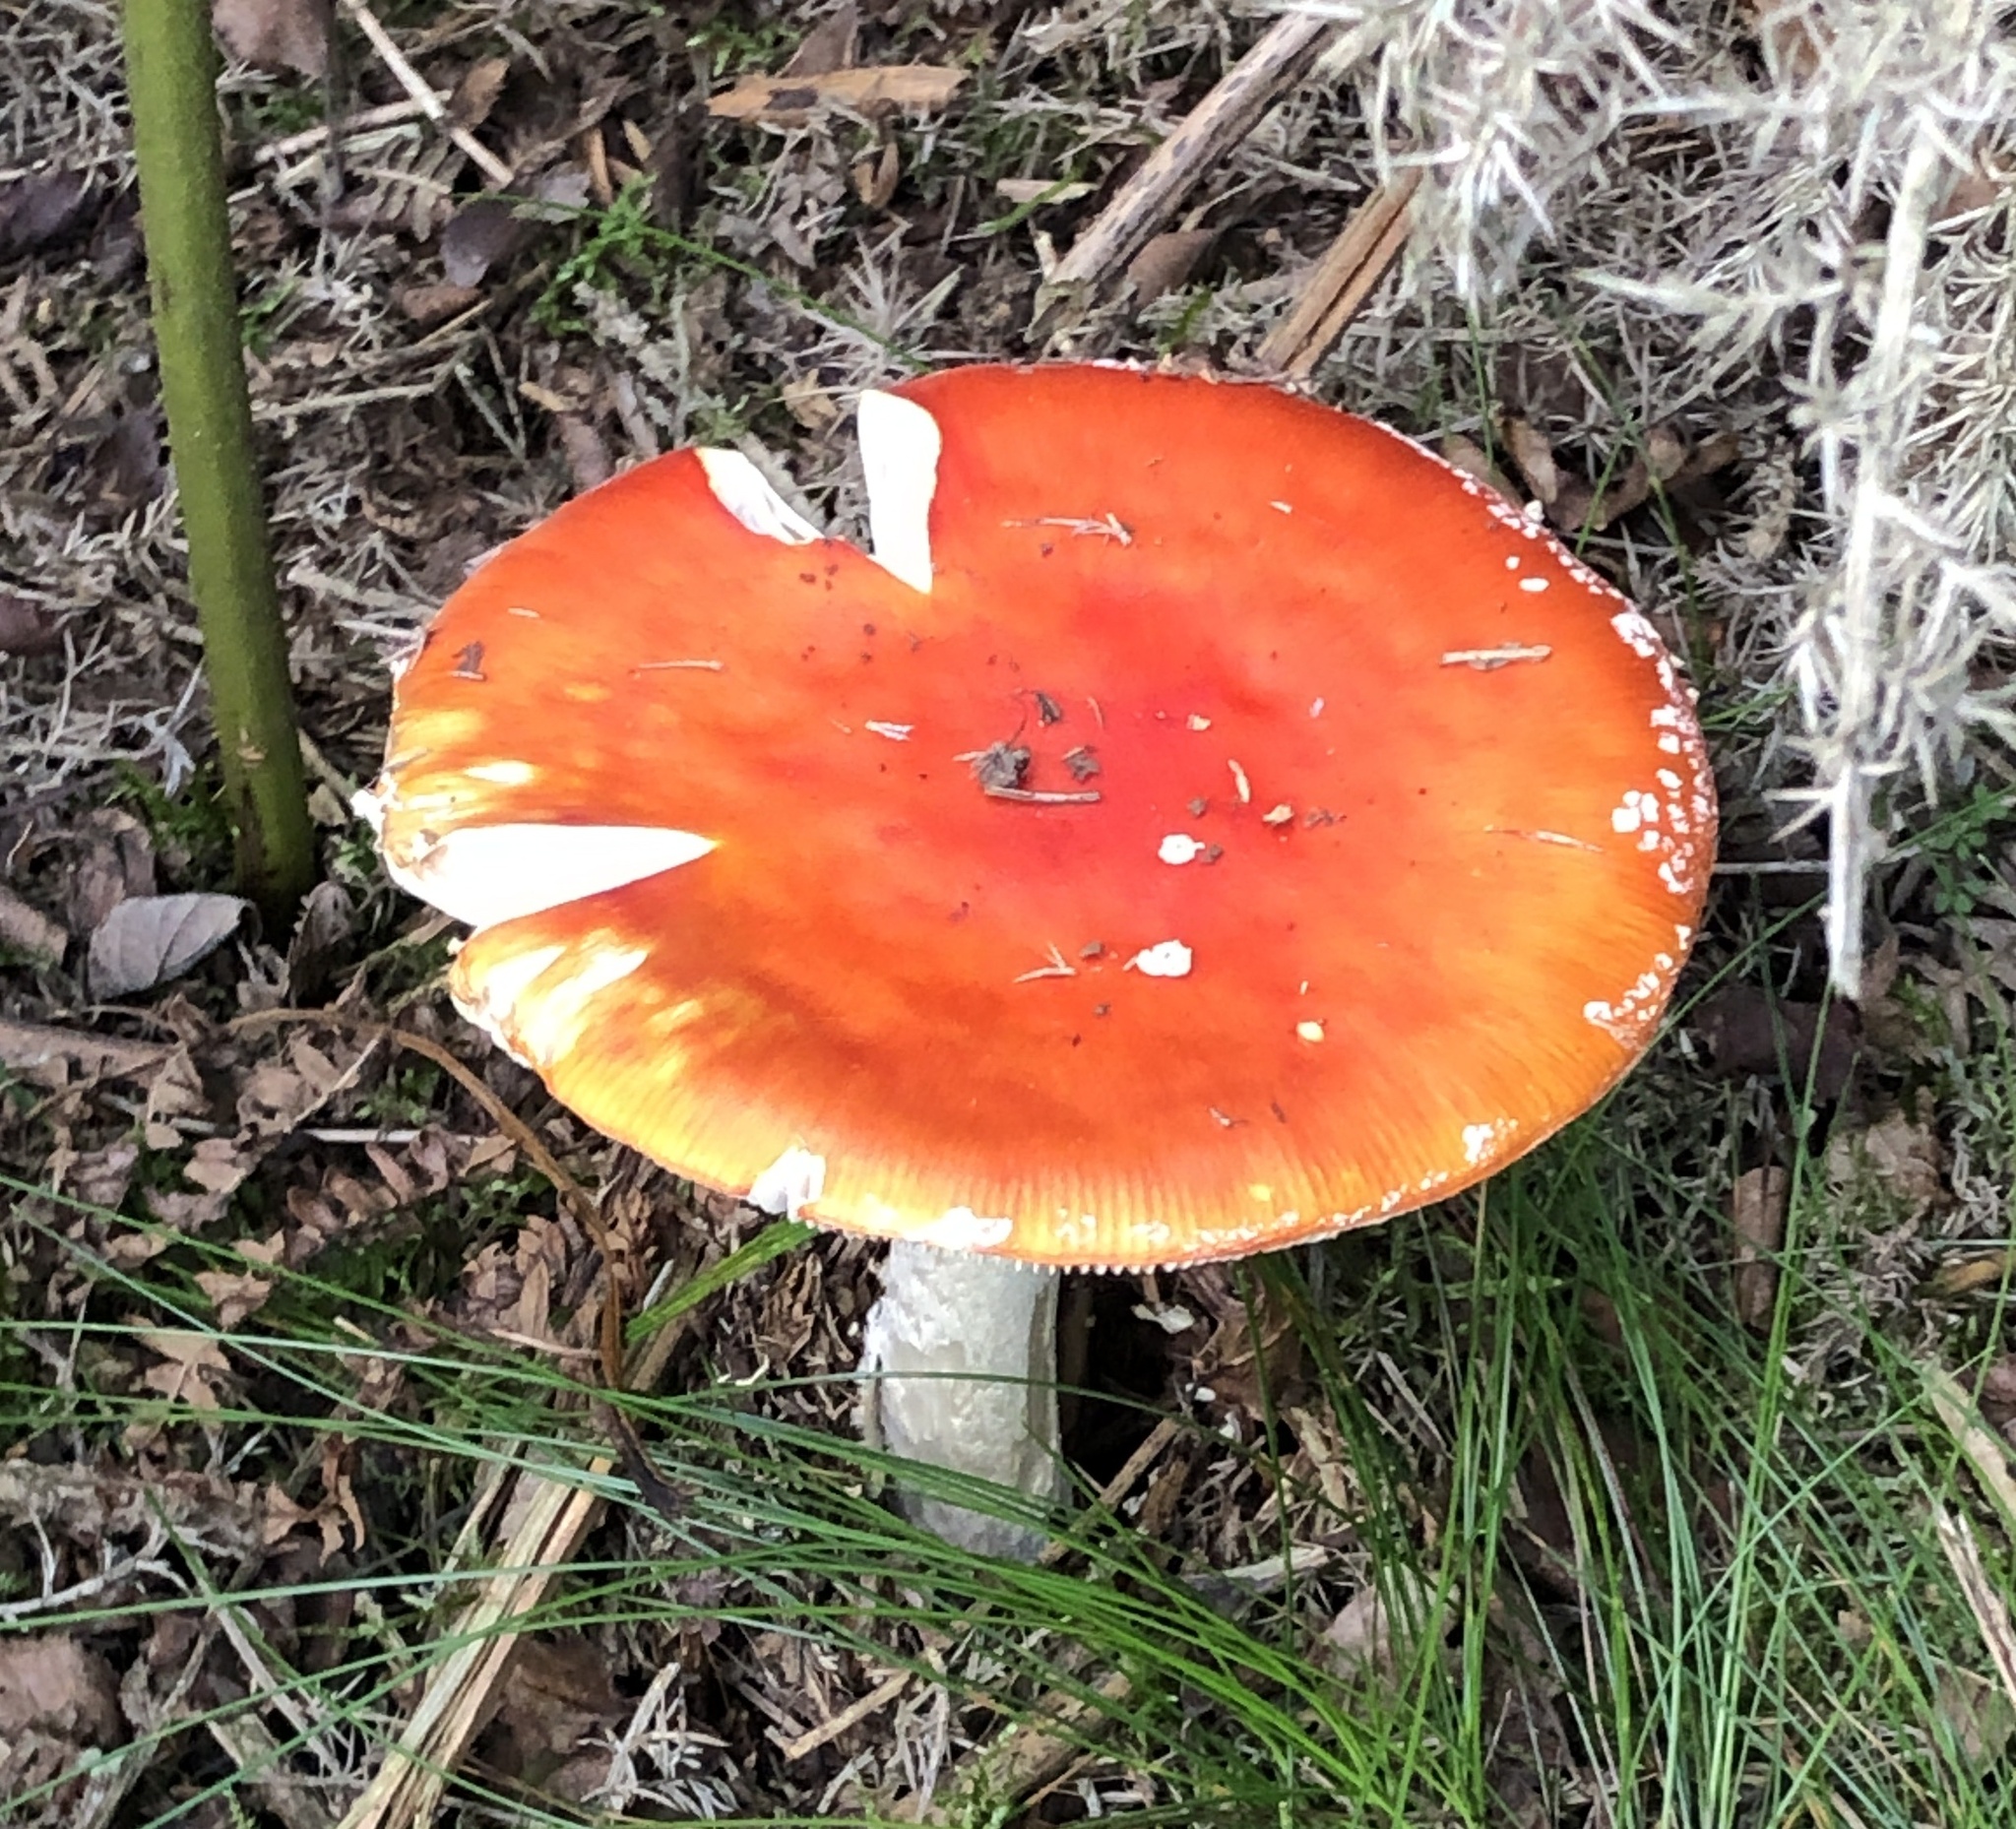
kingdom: Fungi
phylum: Basidiomycota
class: Agaricomycetes
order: Agaricales
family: Amanitaceae
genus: Amanita
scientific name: Amanita muscaria
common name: Fly agaric
